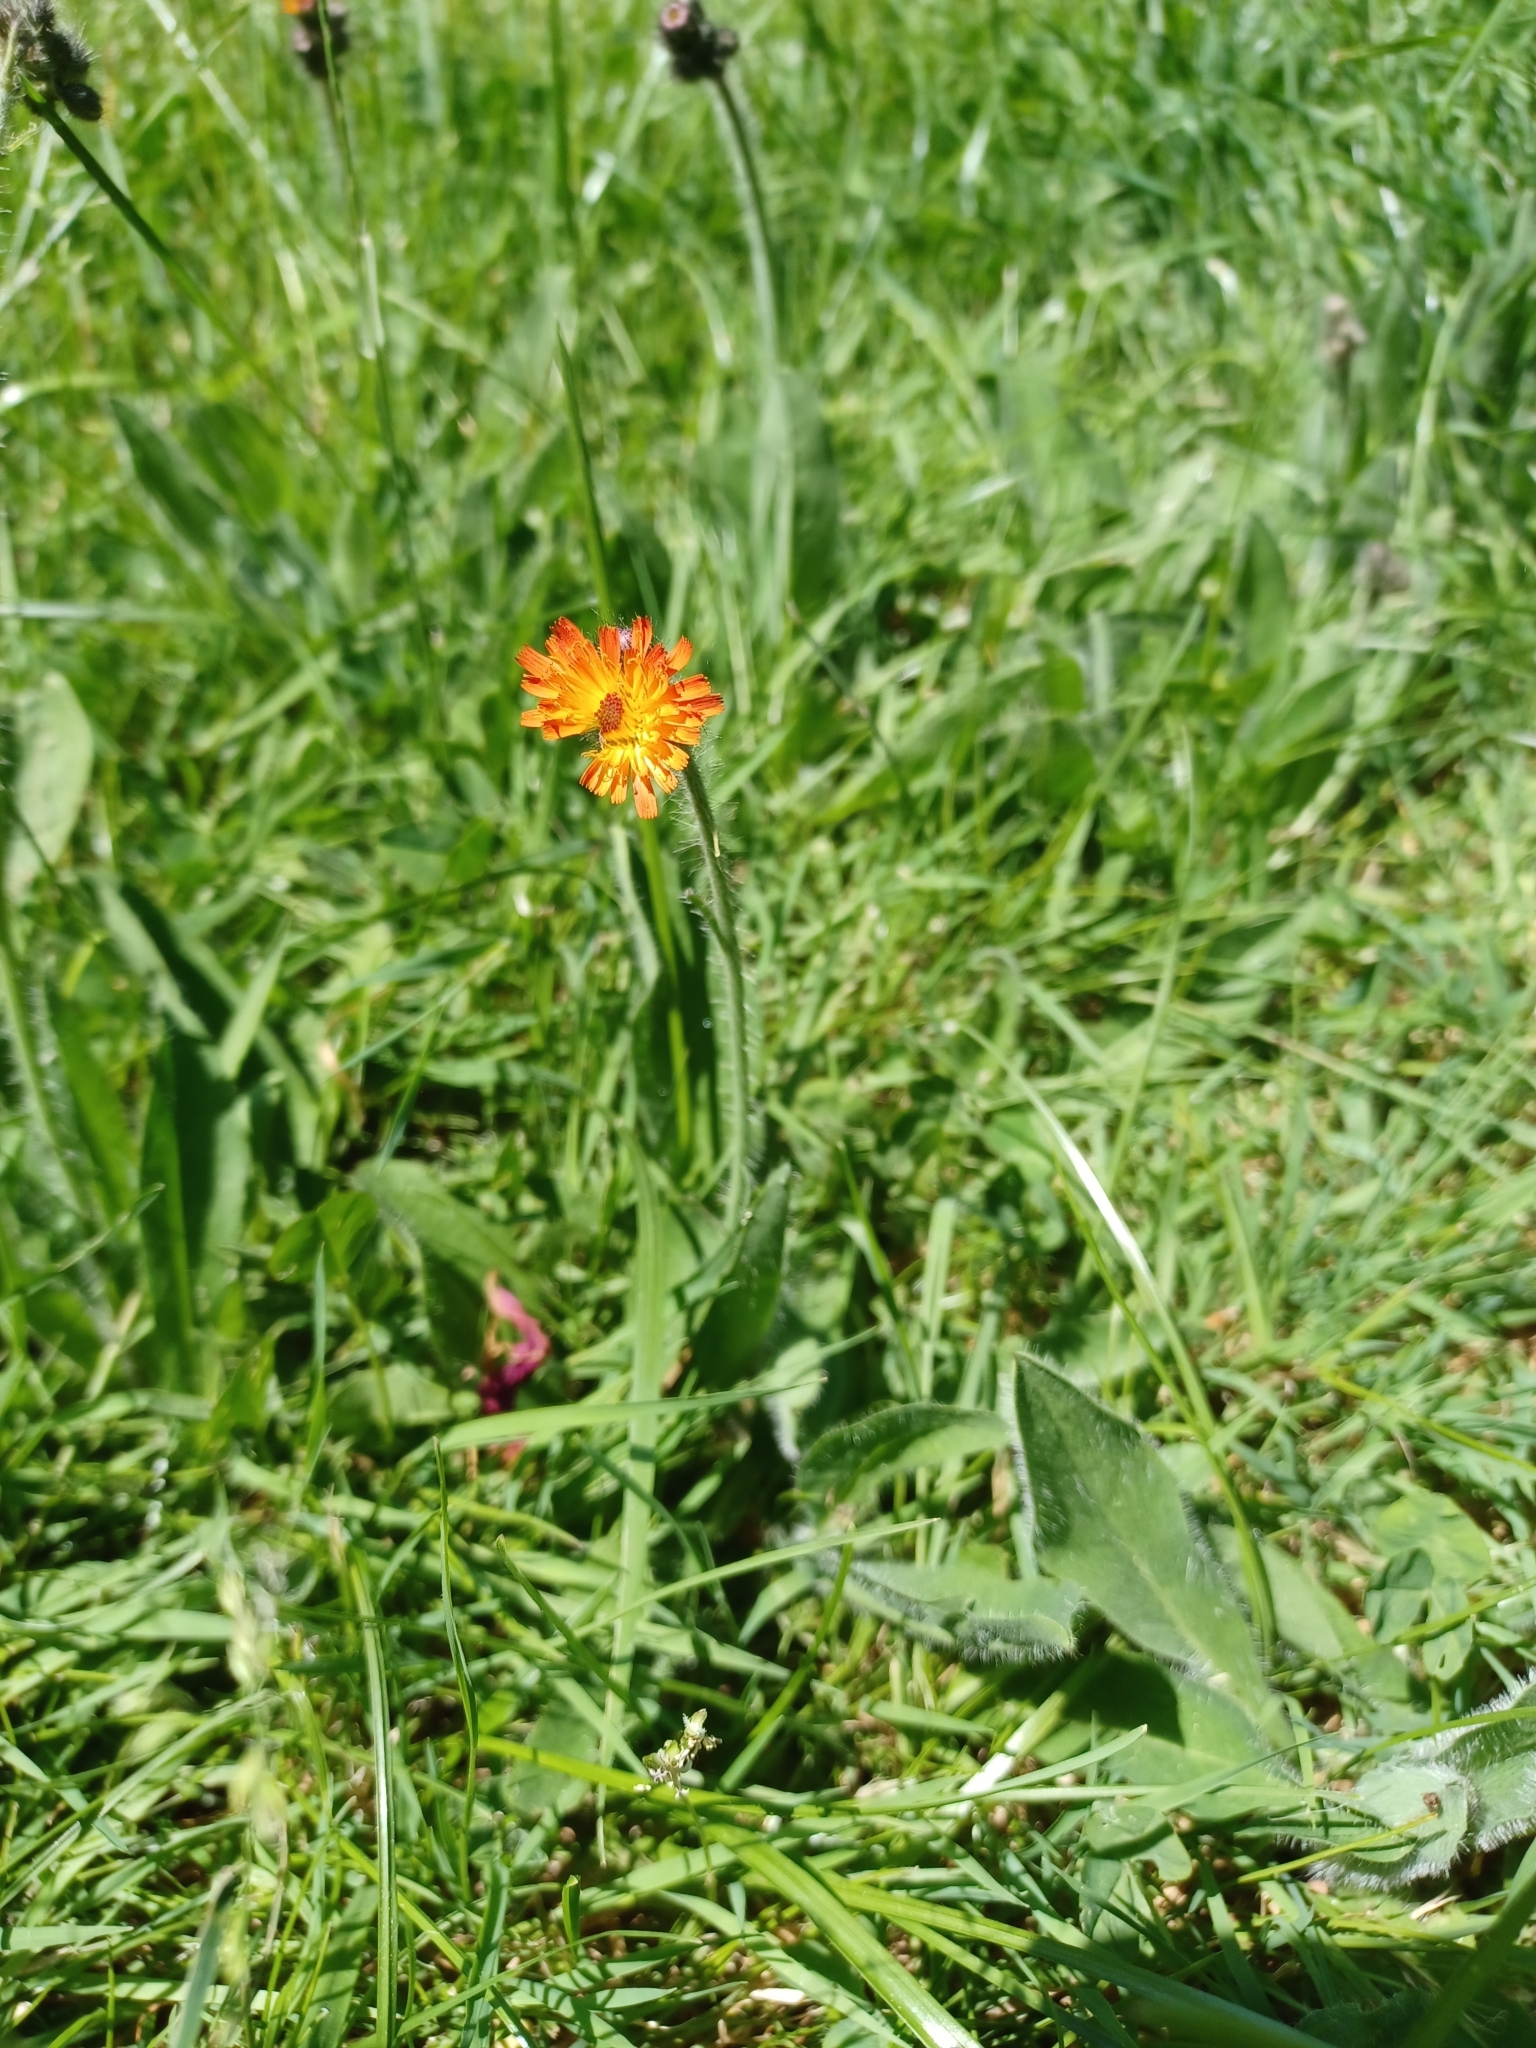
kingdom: Plantae
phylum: Tracheophyta
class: Magnoliopsida
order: Asterales
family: Asteraceae
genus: Pilosella
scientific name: Pilosella aurantiaca
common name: Fox-and-cubs
